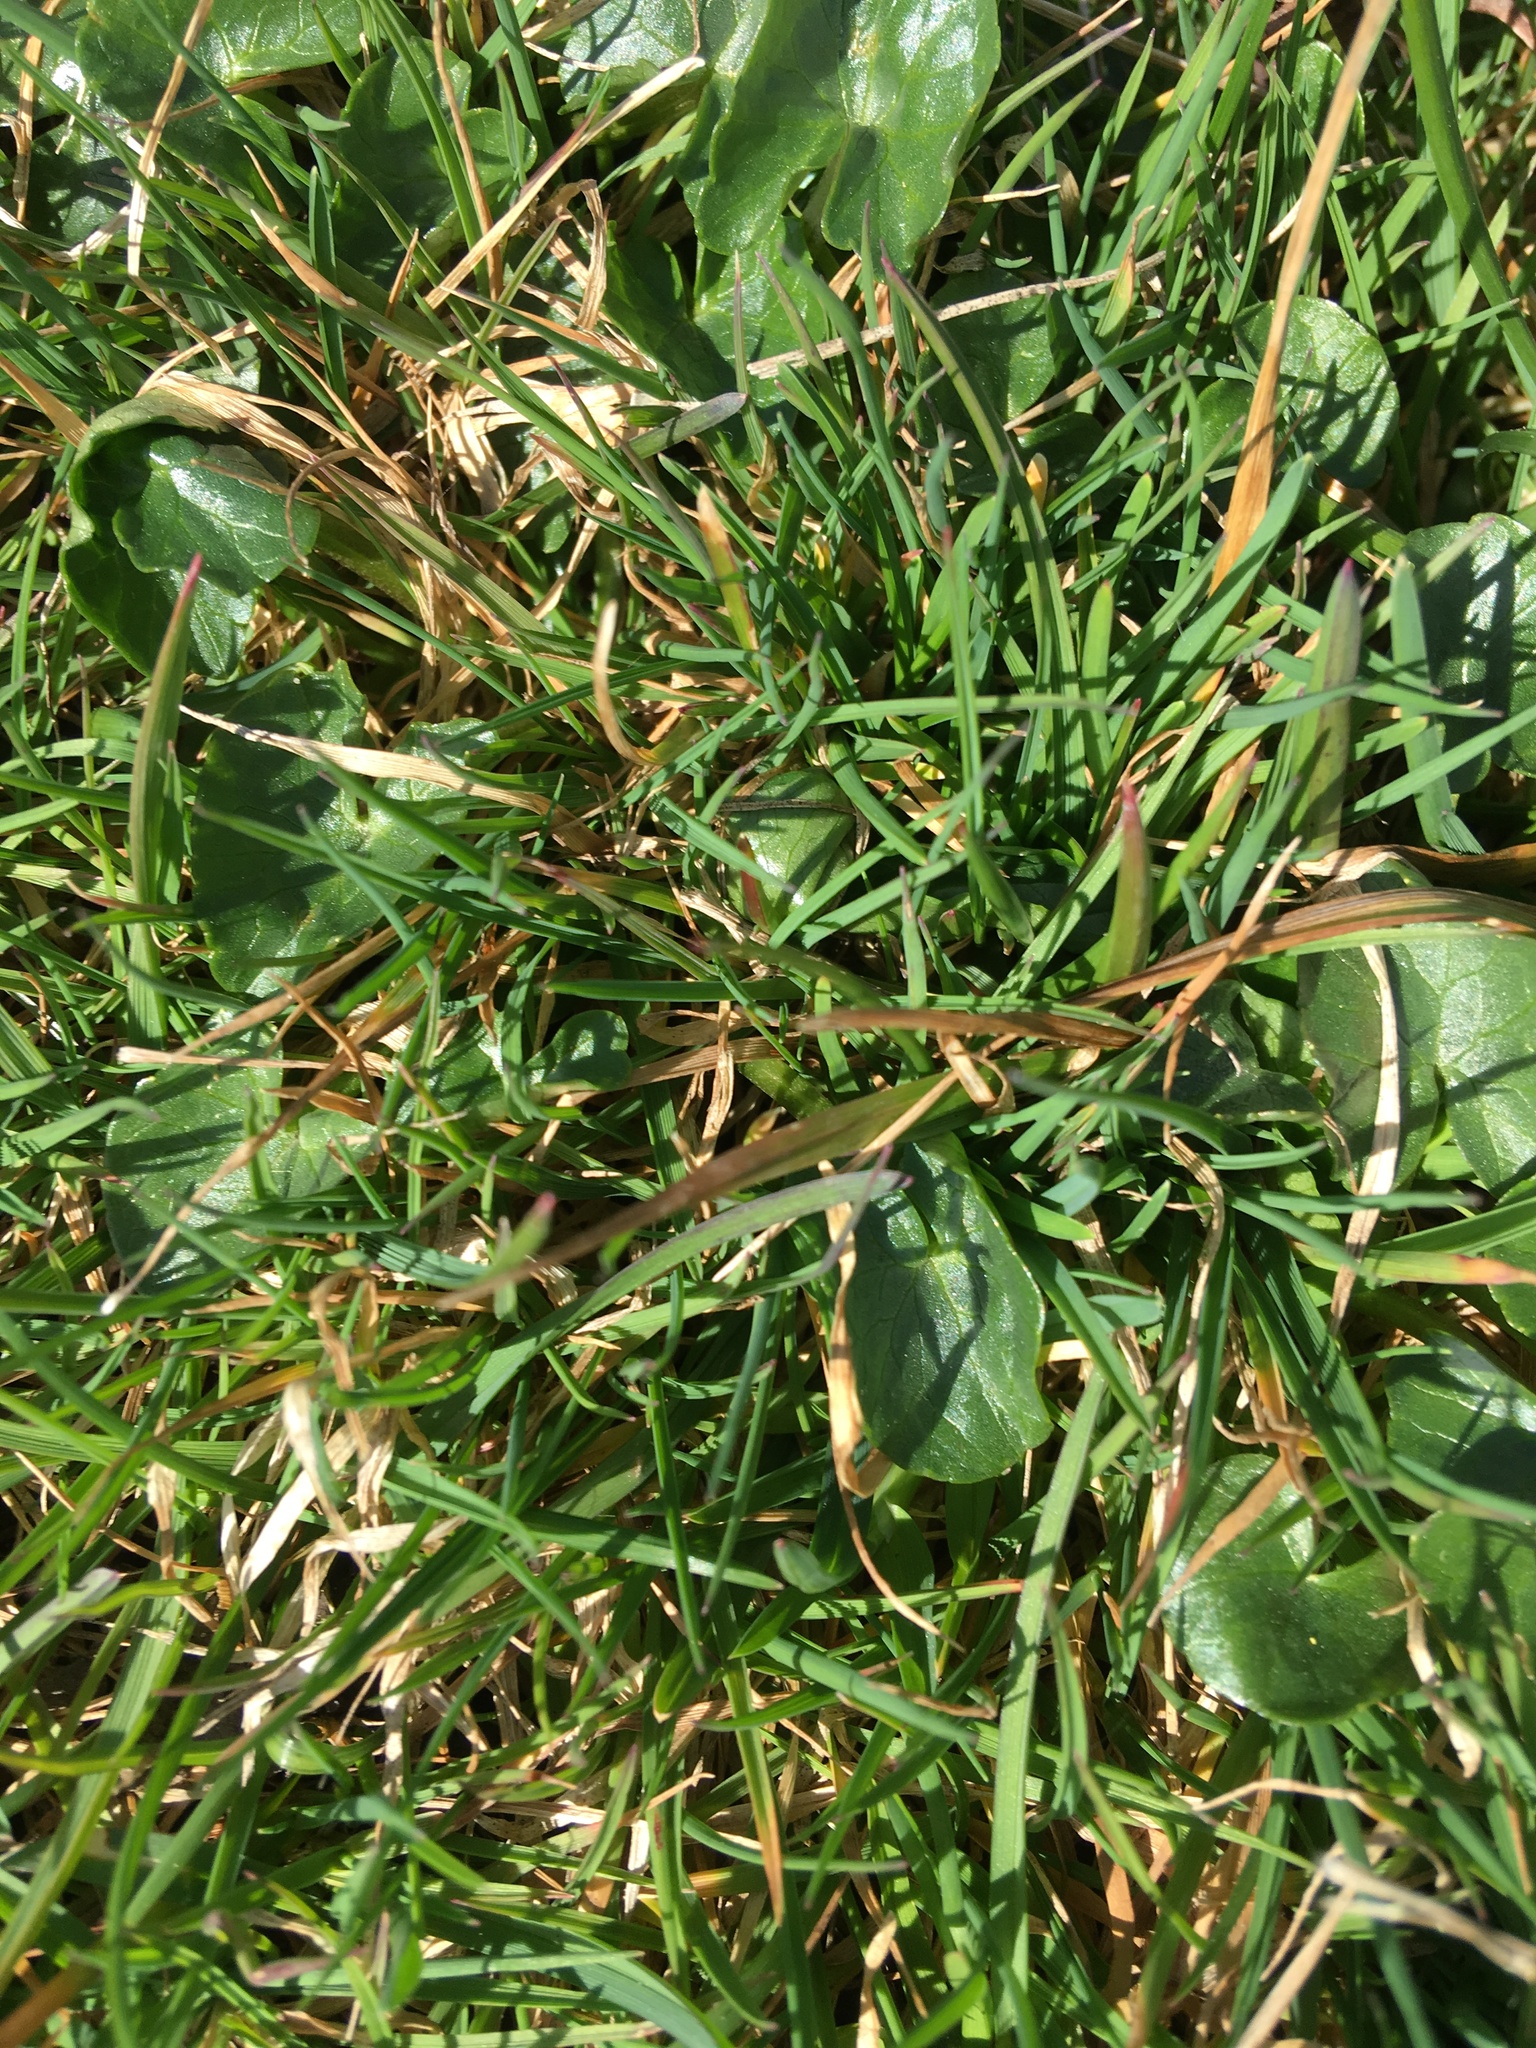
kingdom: Plantae
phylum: Tracheophyta
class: Magnoliopsida
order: Ranunculales
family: Ranunculaceae
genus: Ficaria
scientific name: Ficaria verna
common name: Lesser celandine
